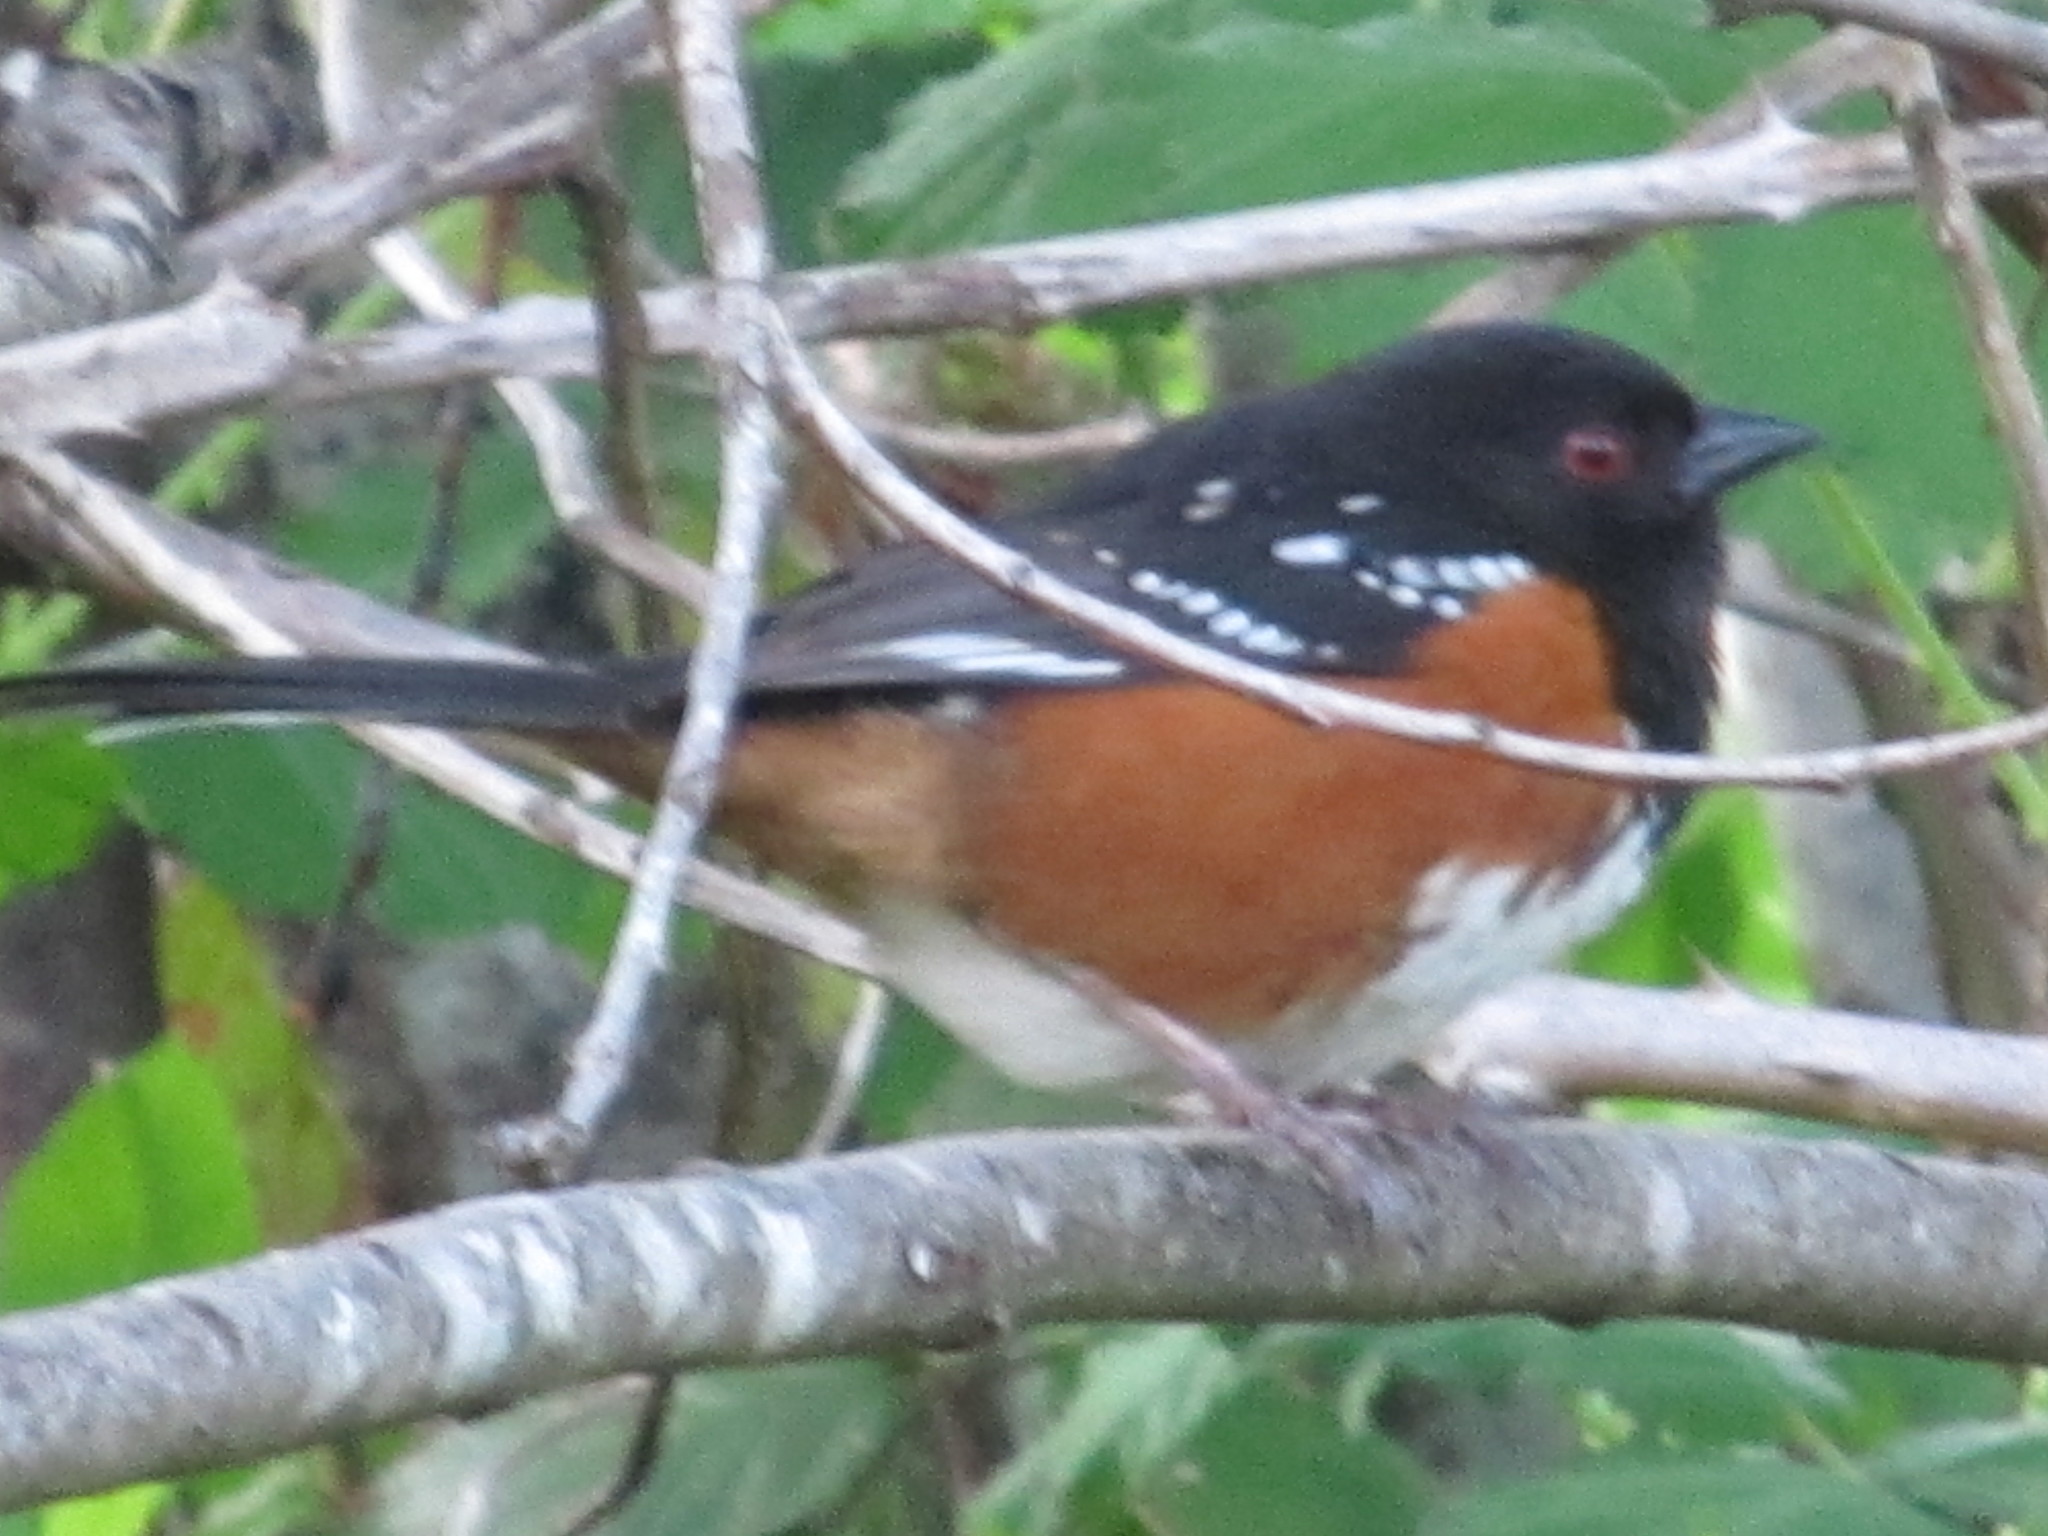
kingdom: Animalia
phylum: Chordata
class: Aves
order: Passeriformes
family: Passerellidae
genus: Pipilo
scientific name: Pipilo maculatus
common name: Spotted towhee
